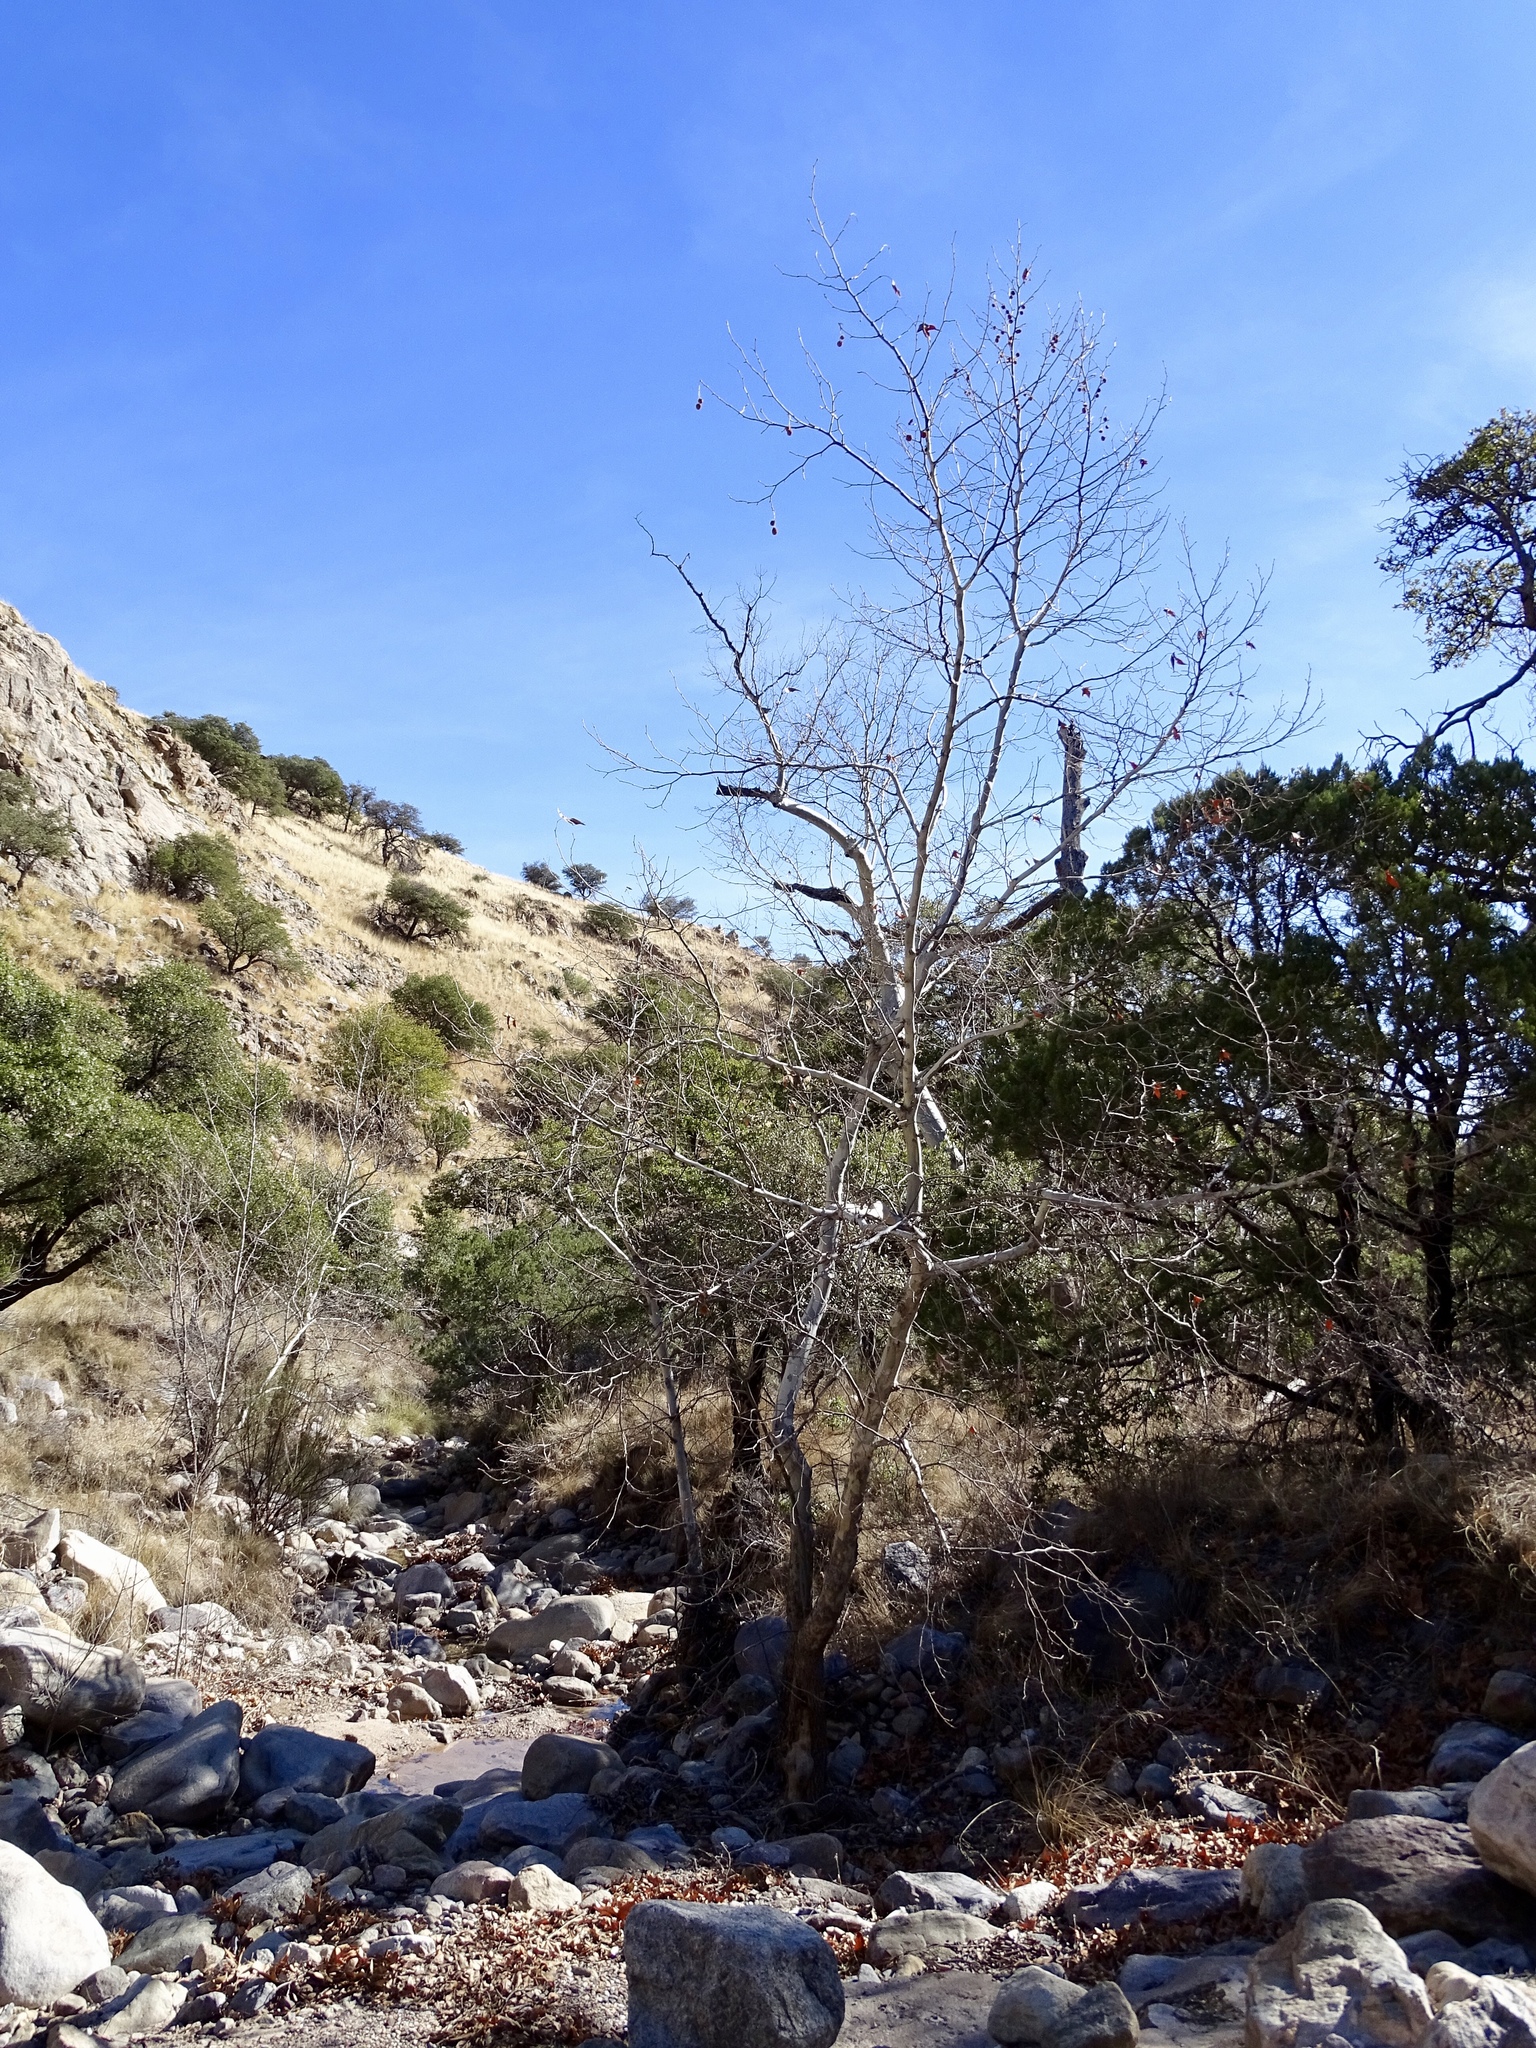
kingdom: Plantae
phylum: Tracheophyta
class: Magnoliopsida
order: Proteales
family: Platanaceae
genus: Platanus
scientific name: Platanus wrightii
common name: Arizona sycamore
